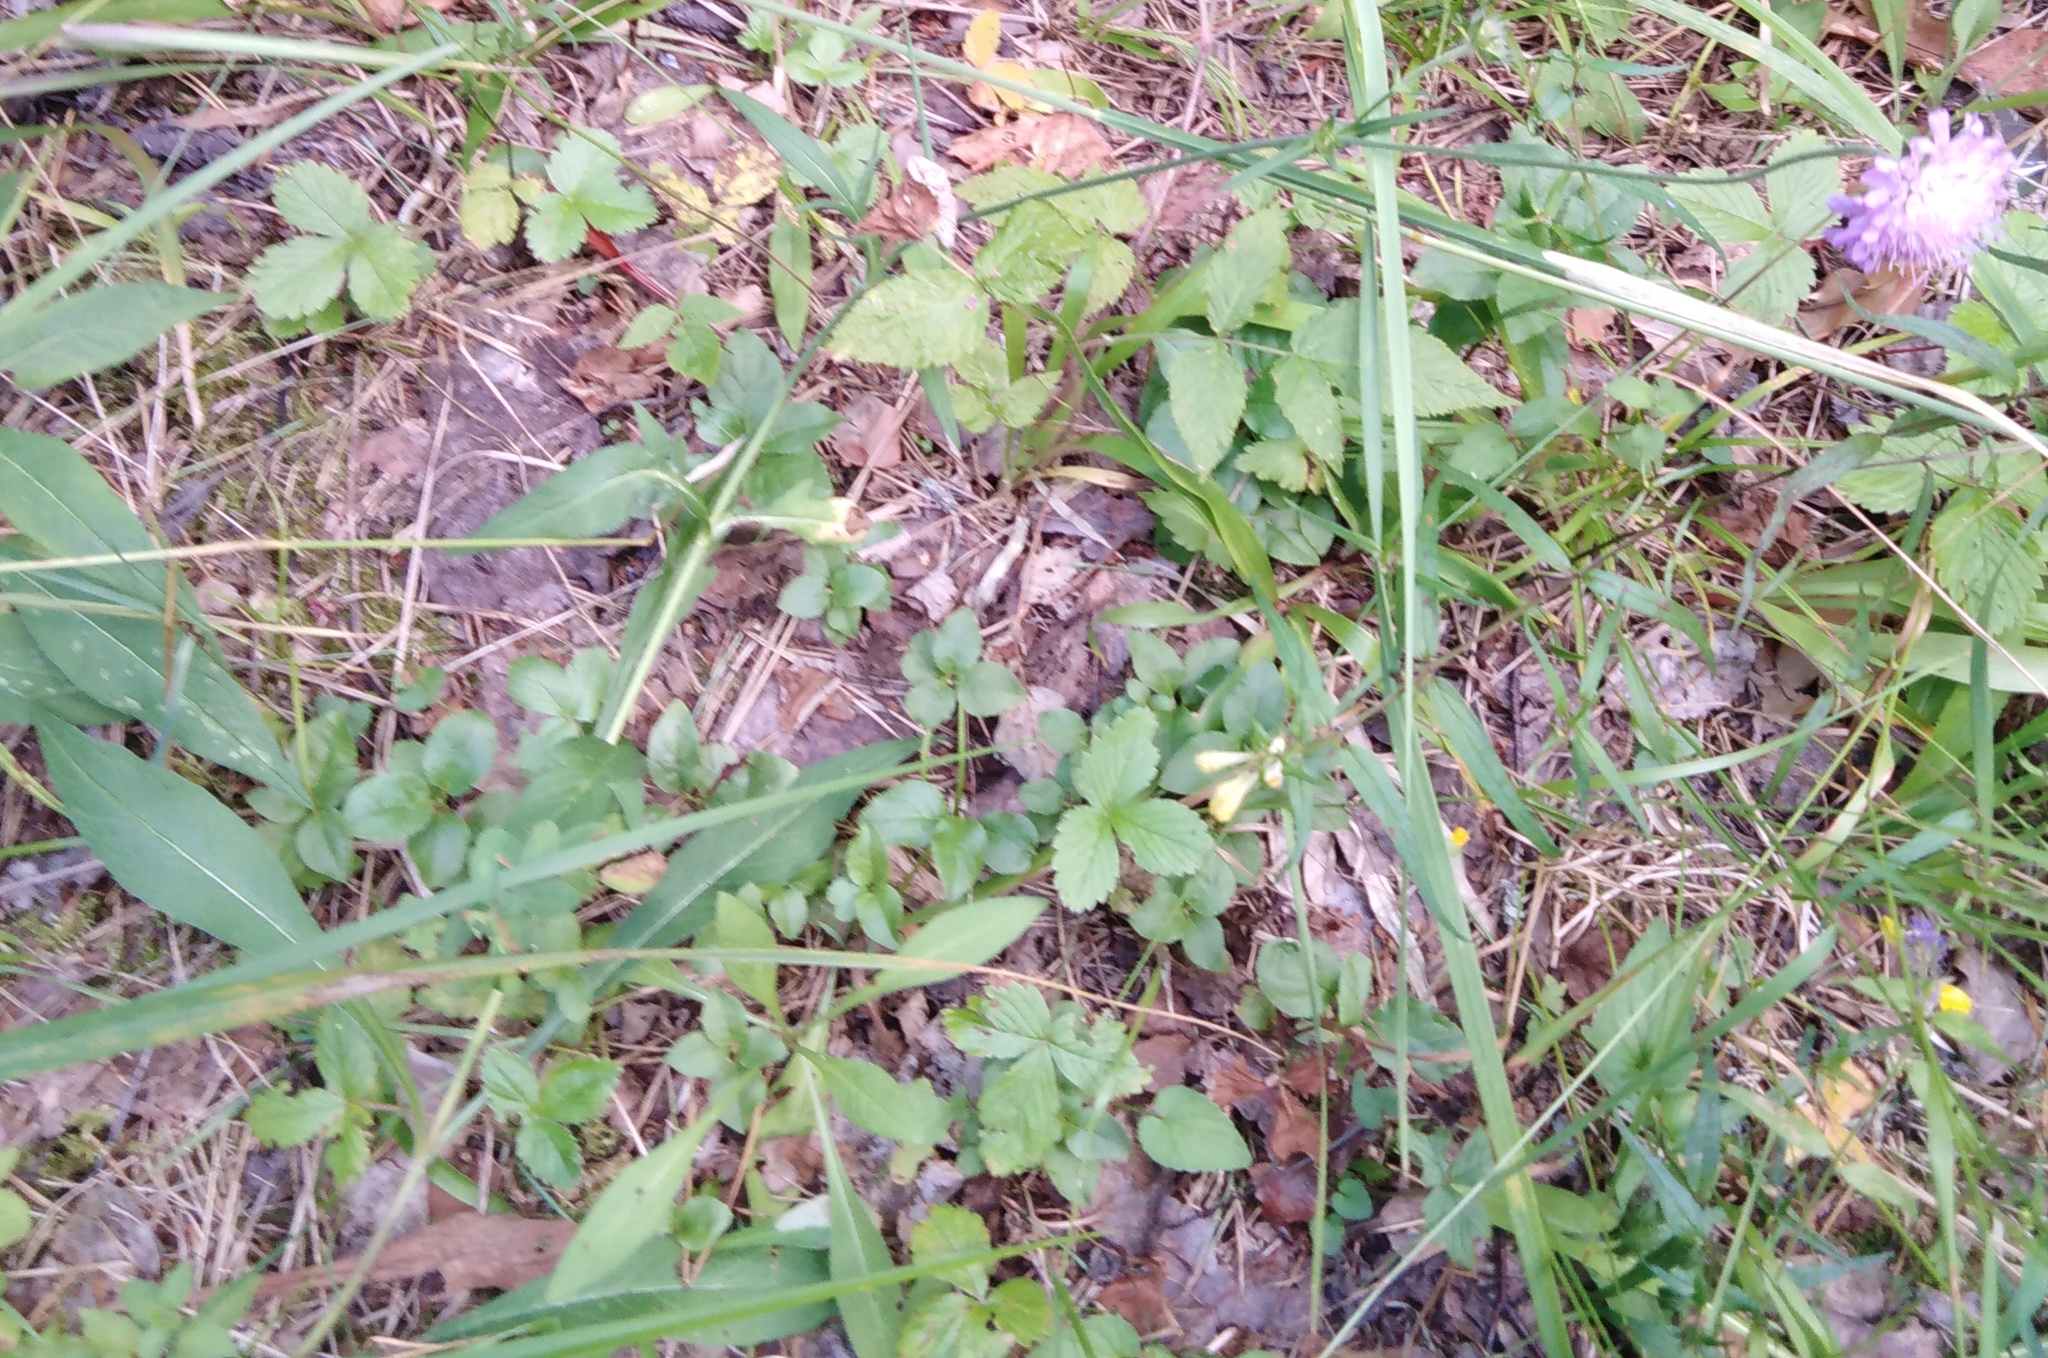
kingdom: Plantae
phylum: Tracheophyta
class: Magnoliopsida
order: Dipsacales
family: Caprifoliaceae
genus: Knautia
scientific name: Knautia arvensis
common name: Field scabiosa
